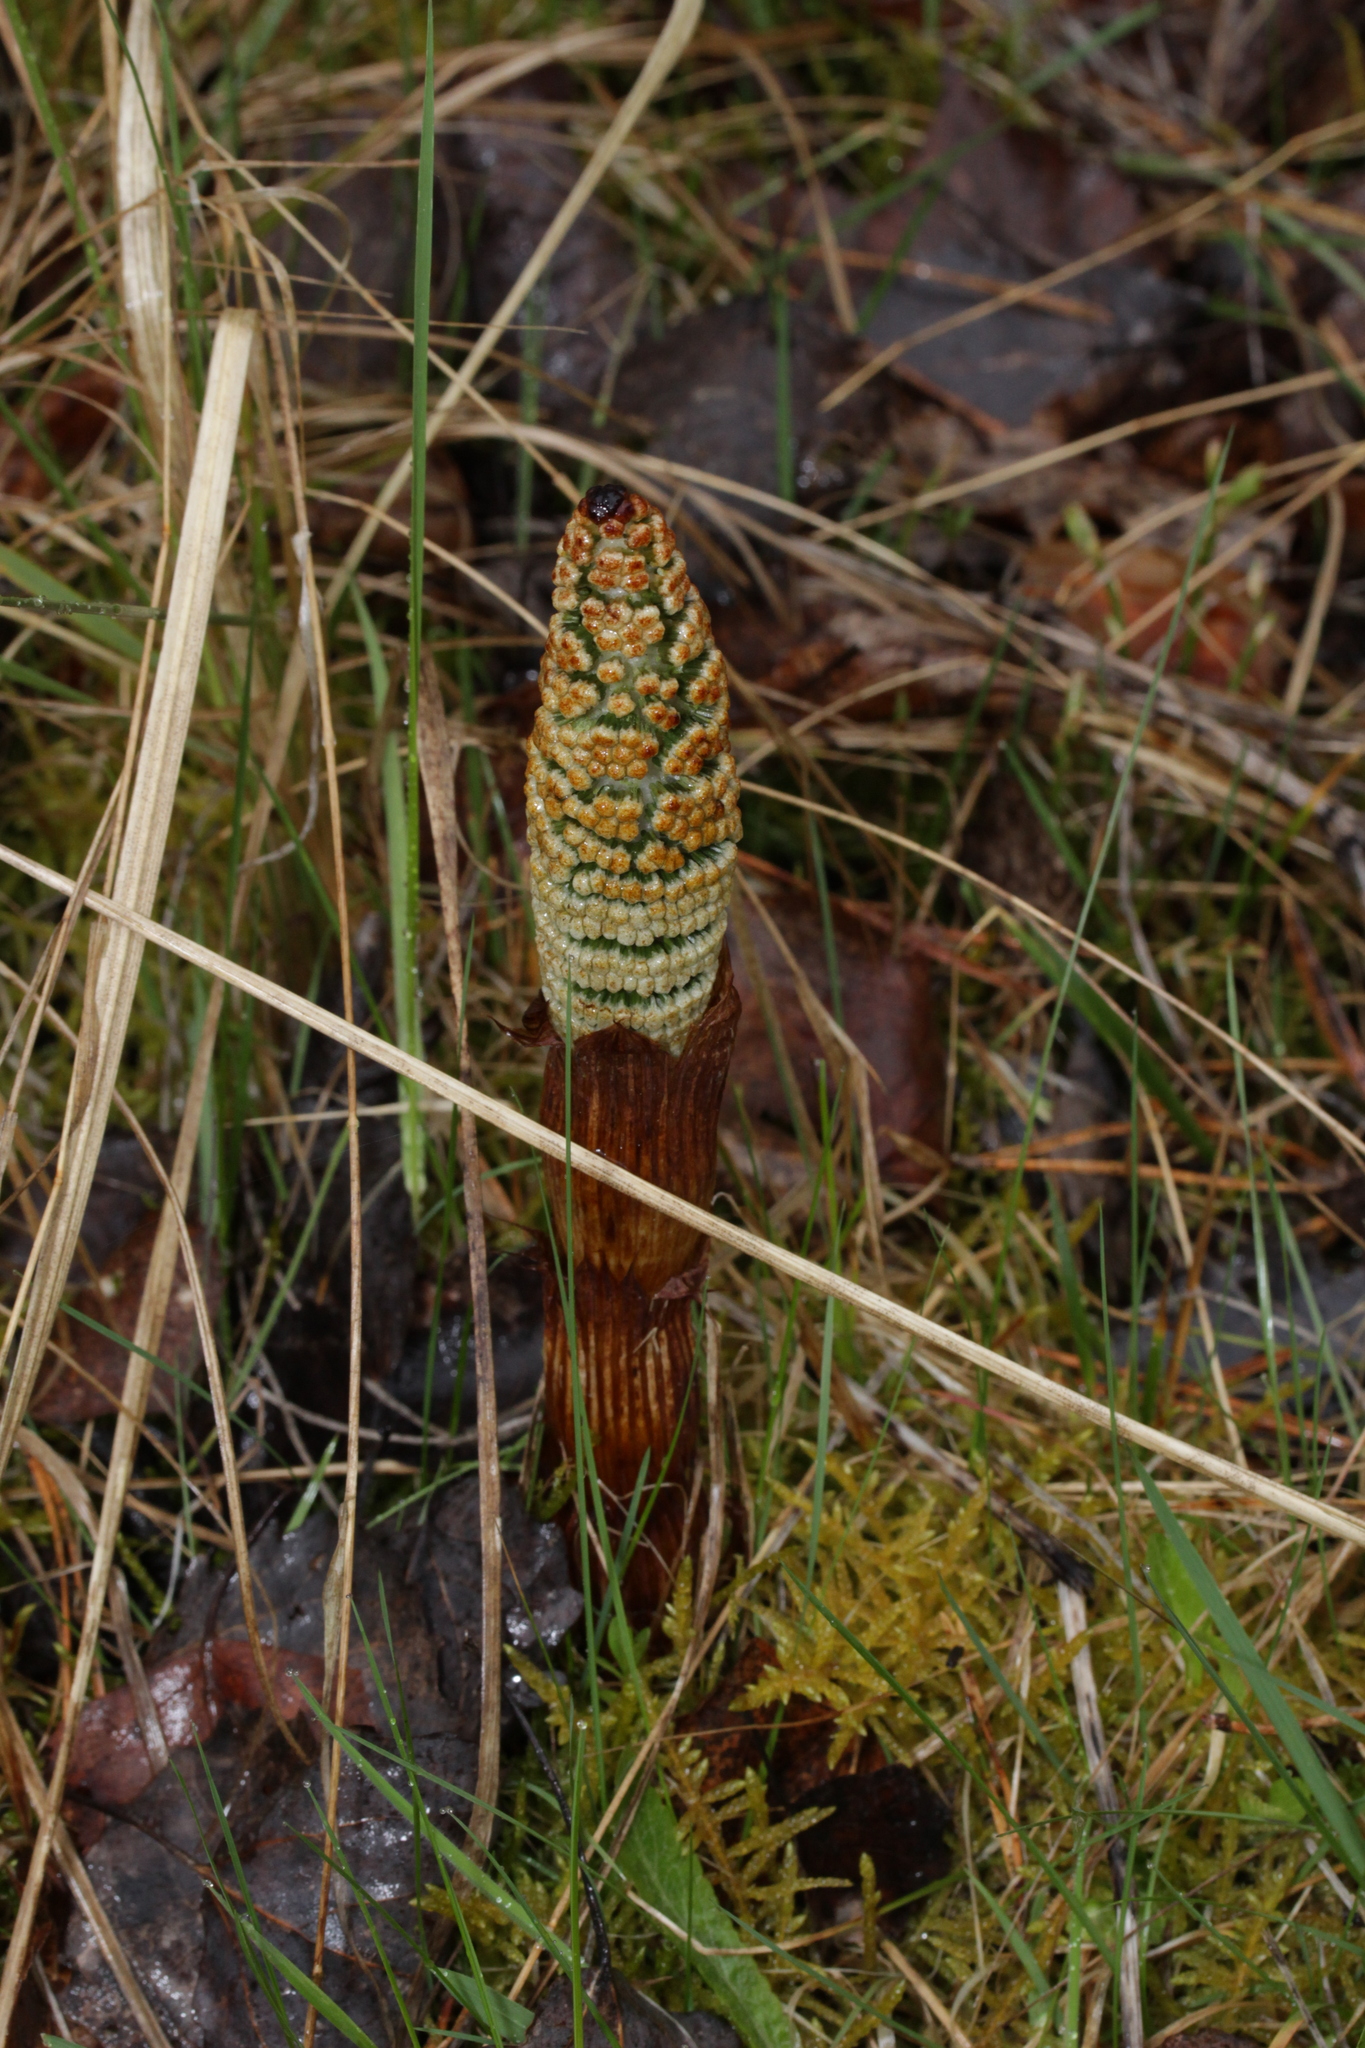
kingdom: Plantae
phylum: Tracheophyta
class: Polypodiopsida
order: Equisetales
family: Equisetaceae
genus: Equisetum
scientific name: Equisetum telmateia
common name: Great horsetail
